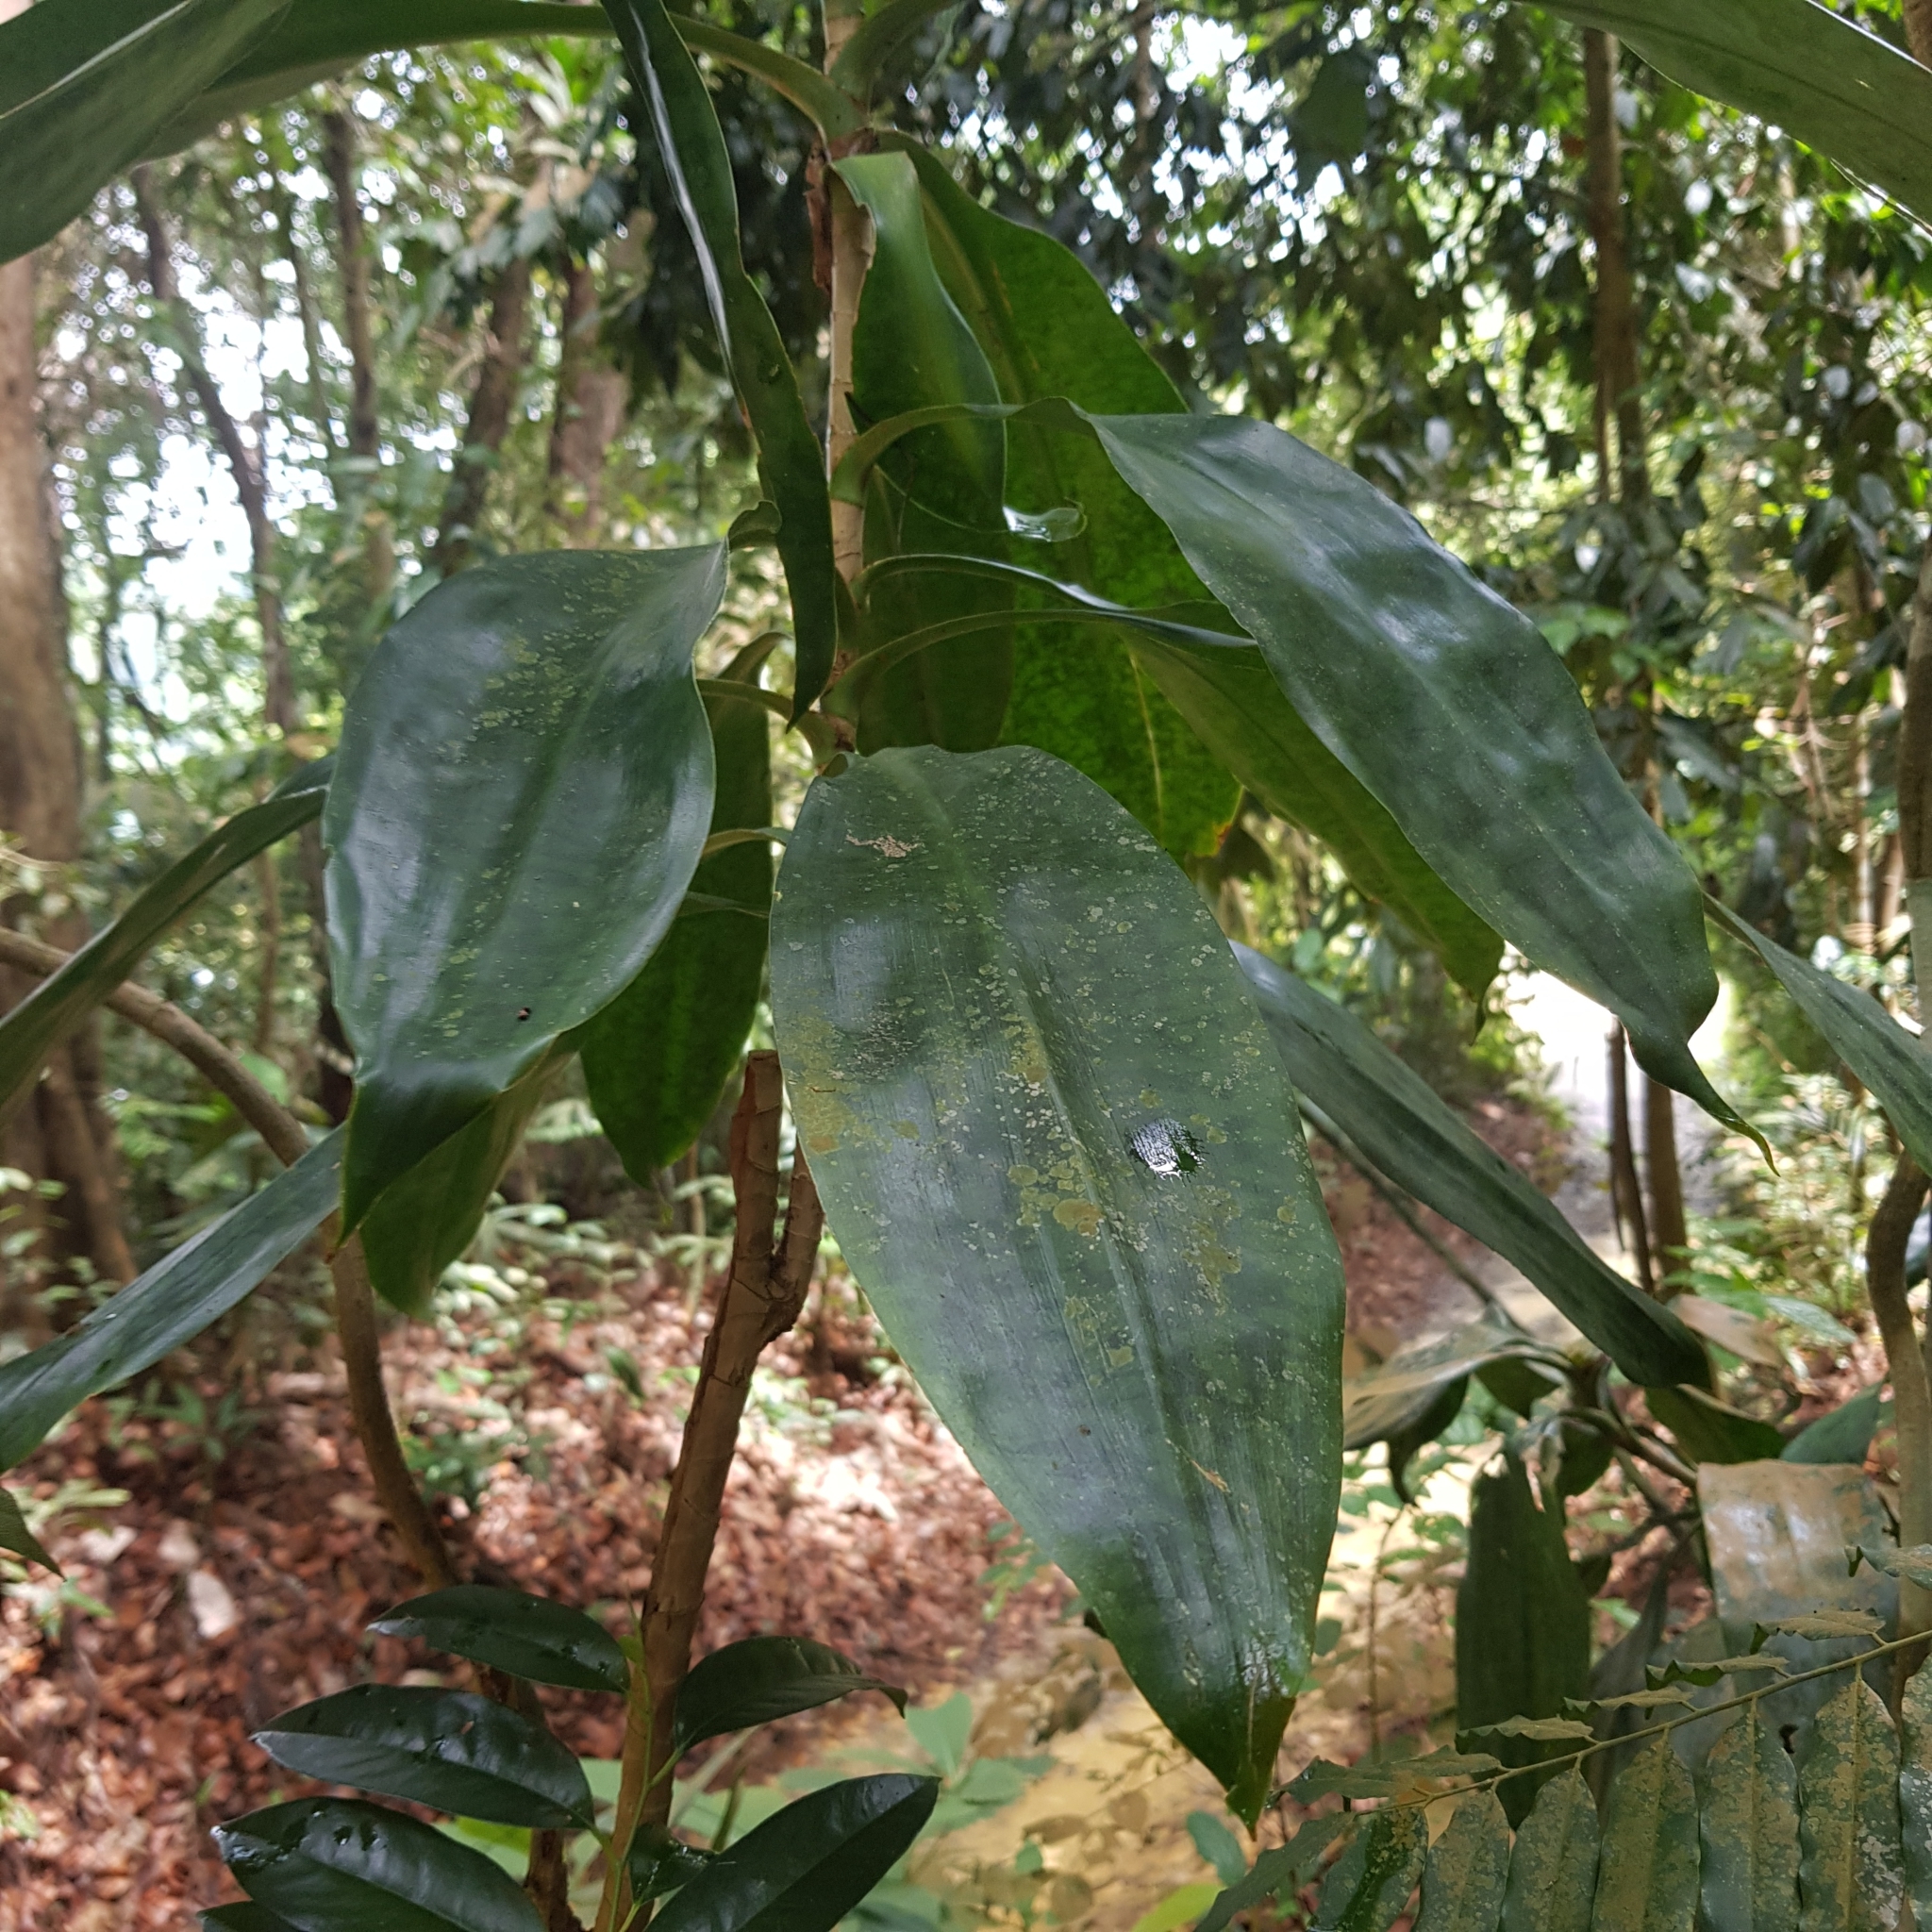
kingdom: Plantae
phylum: Tracheophyta
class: Liliopsida
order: Asparagales
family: Asparagaceae
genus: Dracaena
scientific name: Dracaena cantleyi
